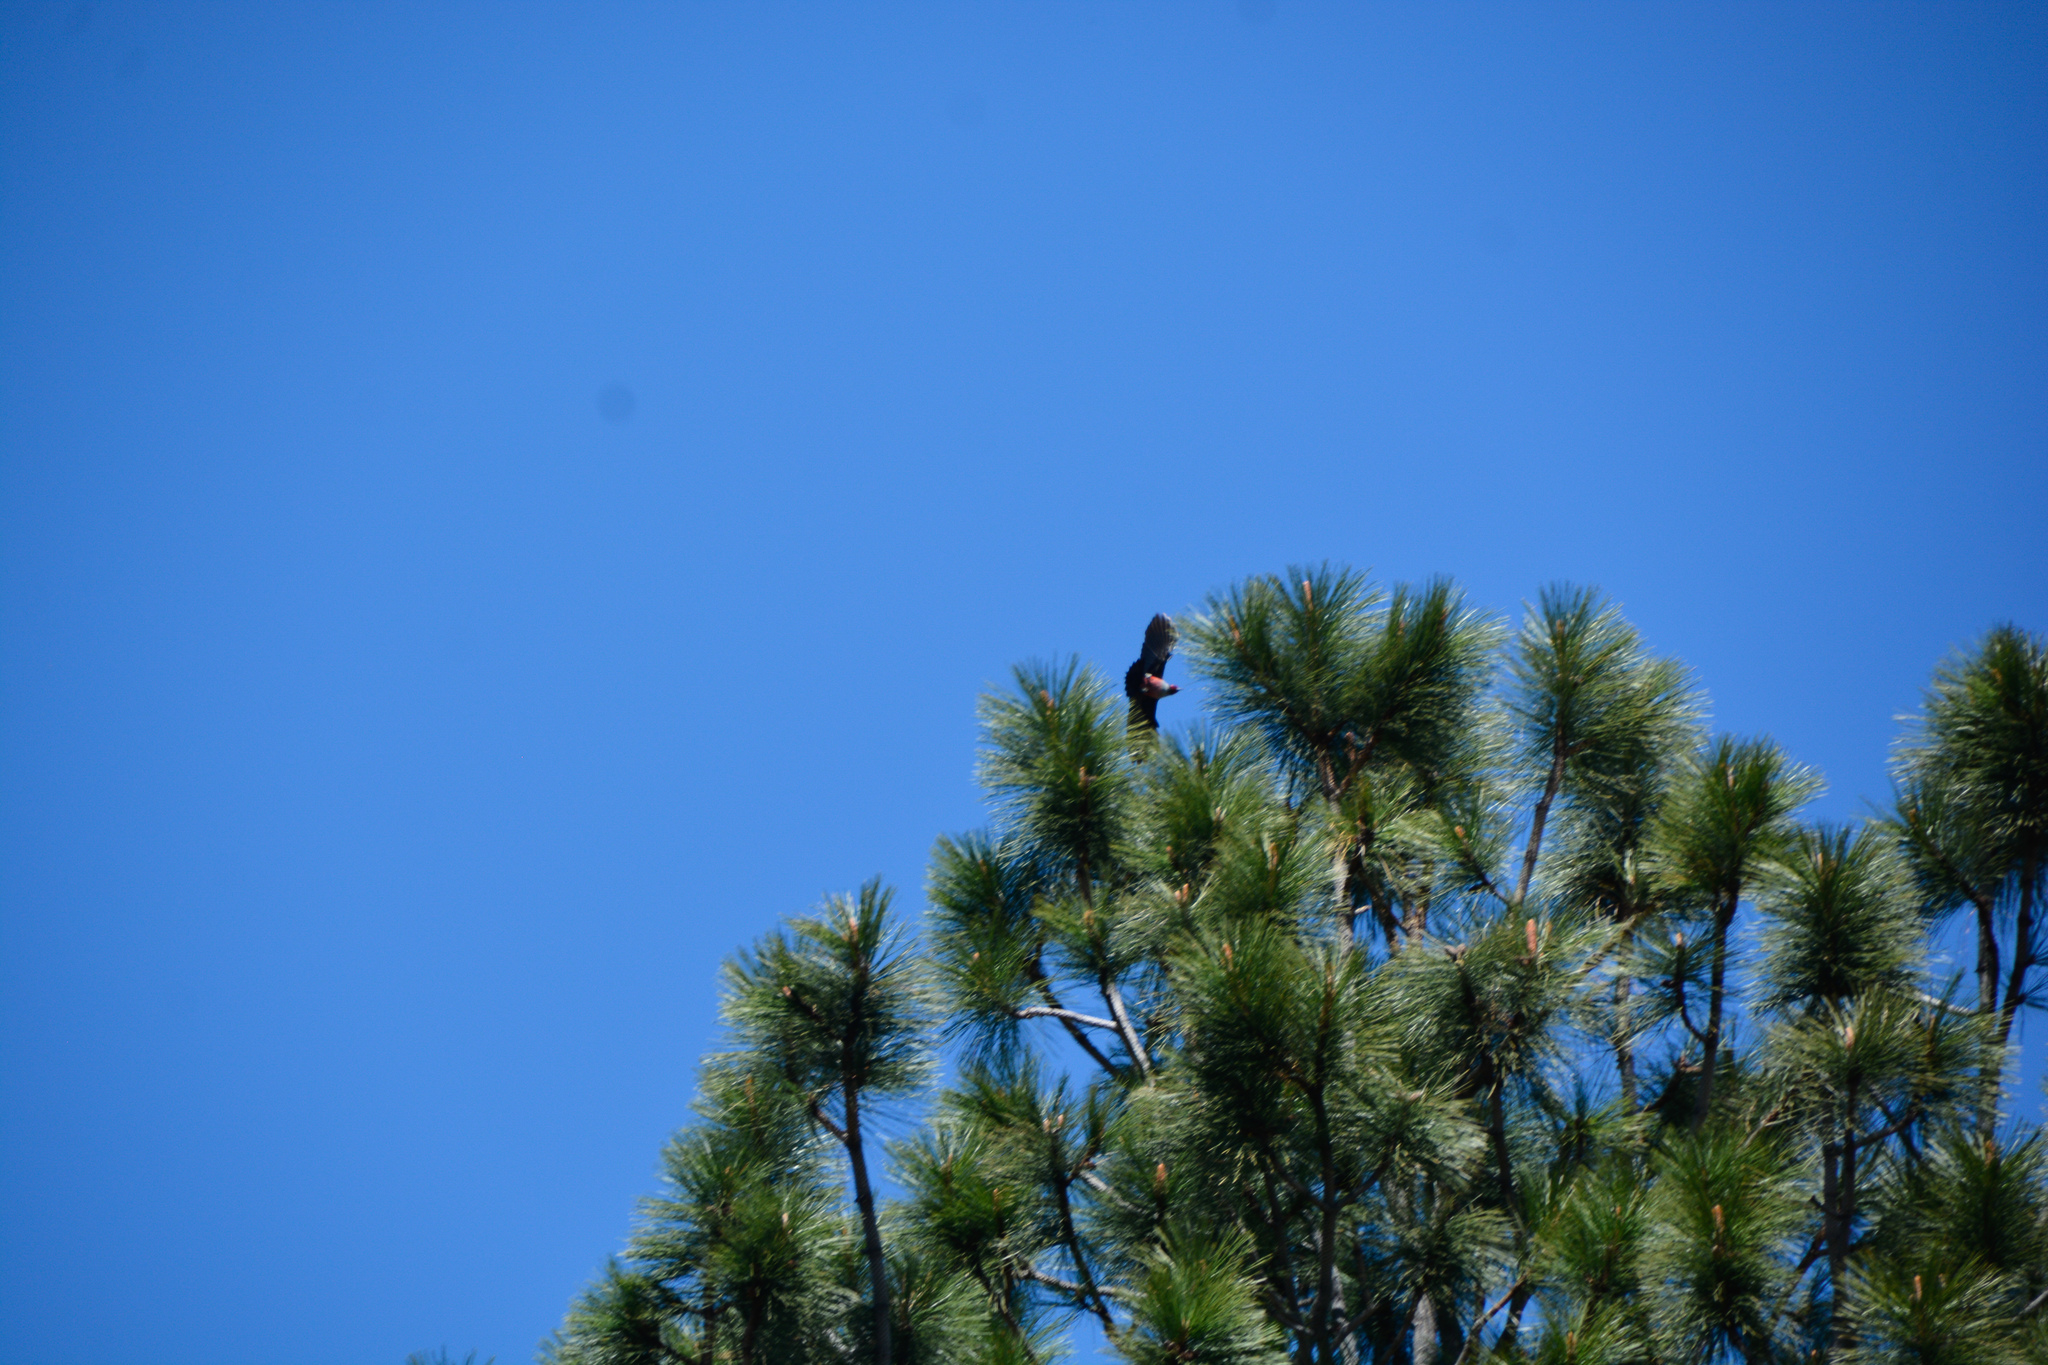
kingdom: Animalia
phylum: Chordata
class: Aves
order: Piciformes
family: Picidae
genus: Melanerpes
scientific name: Melanerpes lewis
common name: Lewis's woodpecker
